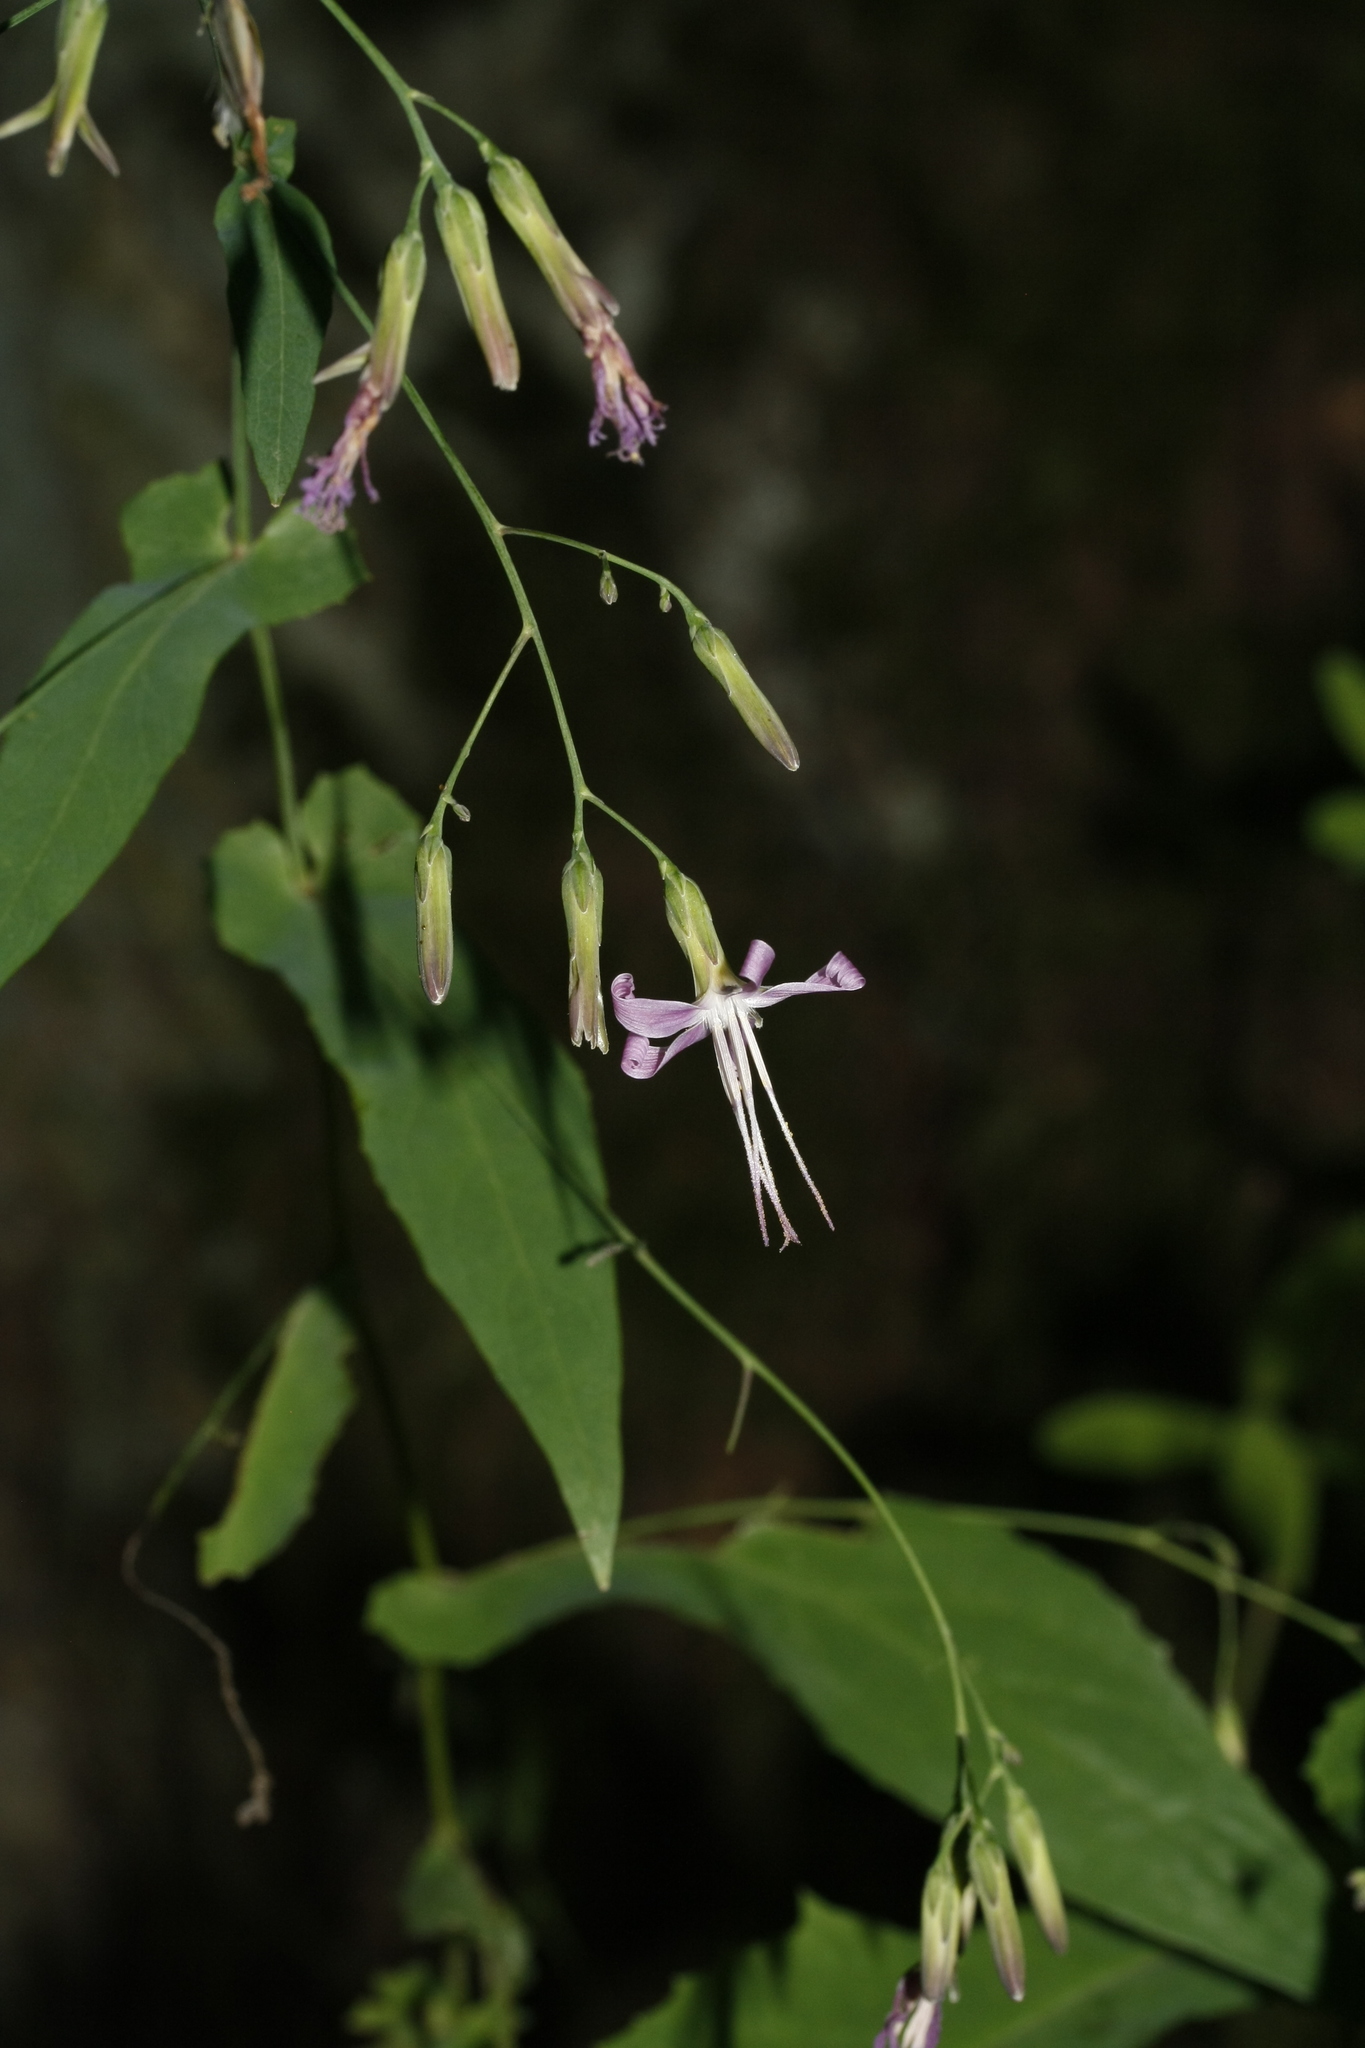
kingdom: Plantae
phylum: Tracheophyta
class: Magnoliopsida
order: Asterales
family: Asteraceae
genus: Prenanthes
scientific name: Prenanthes purpurea
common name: Purple lettuce
